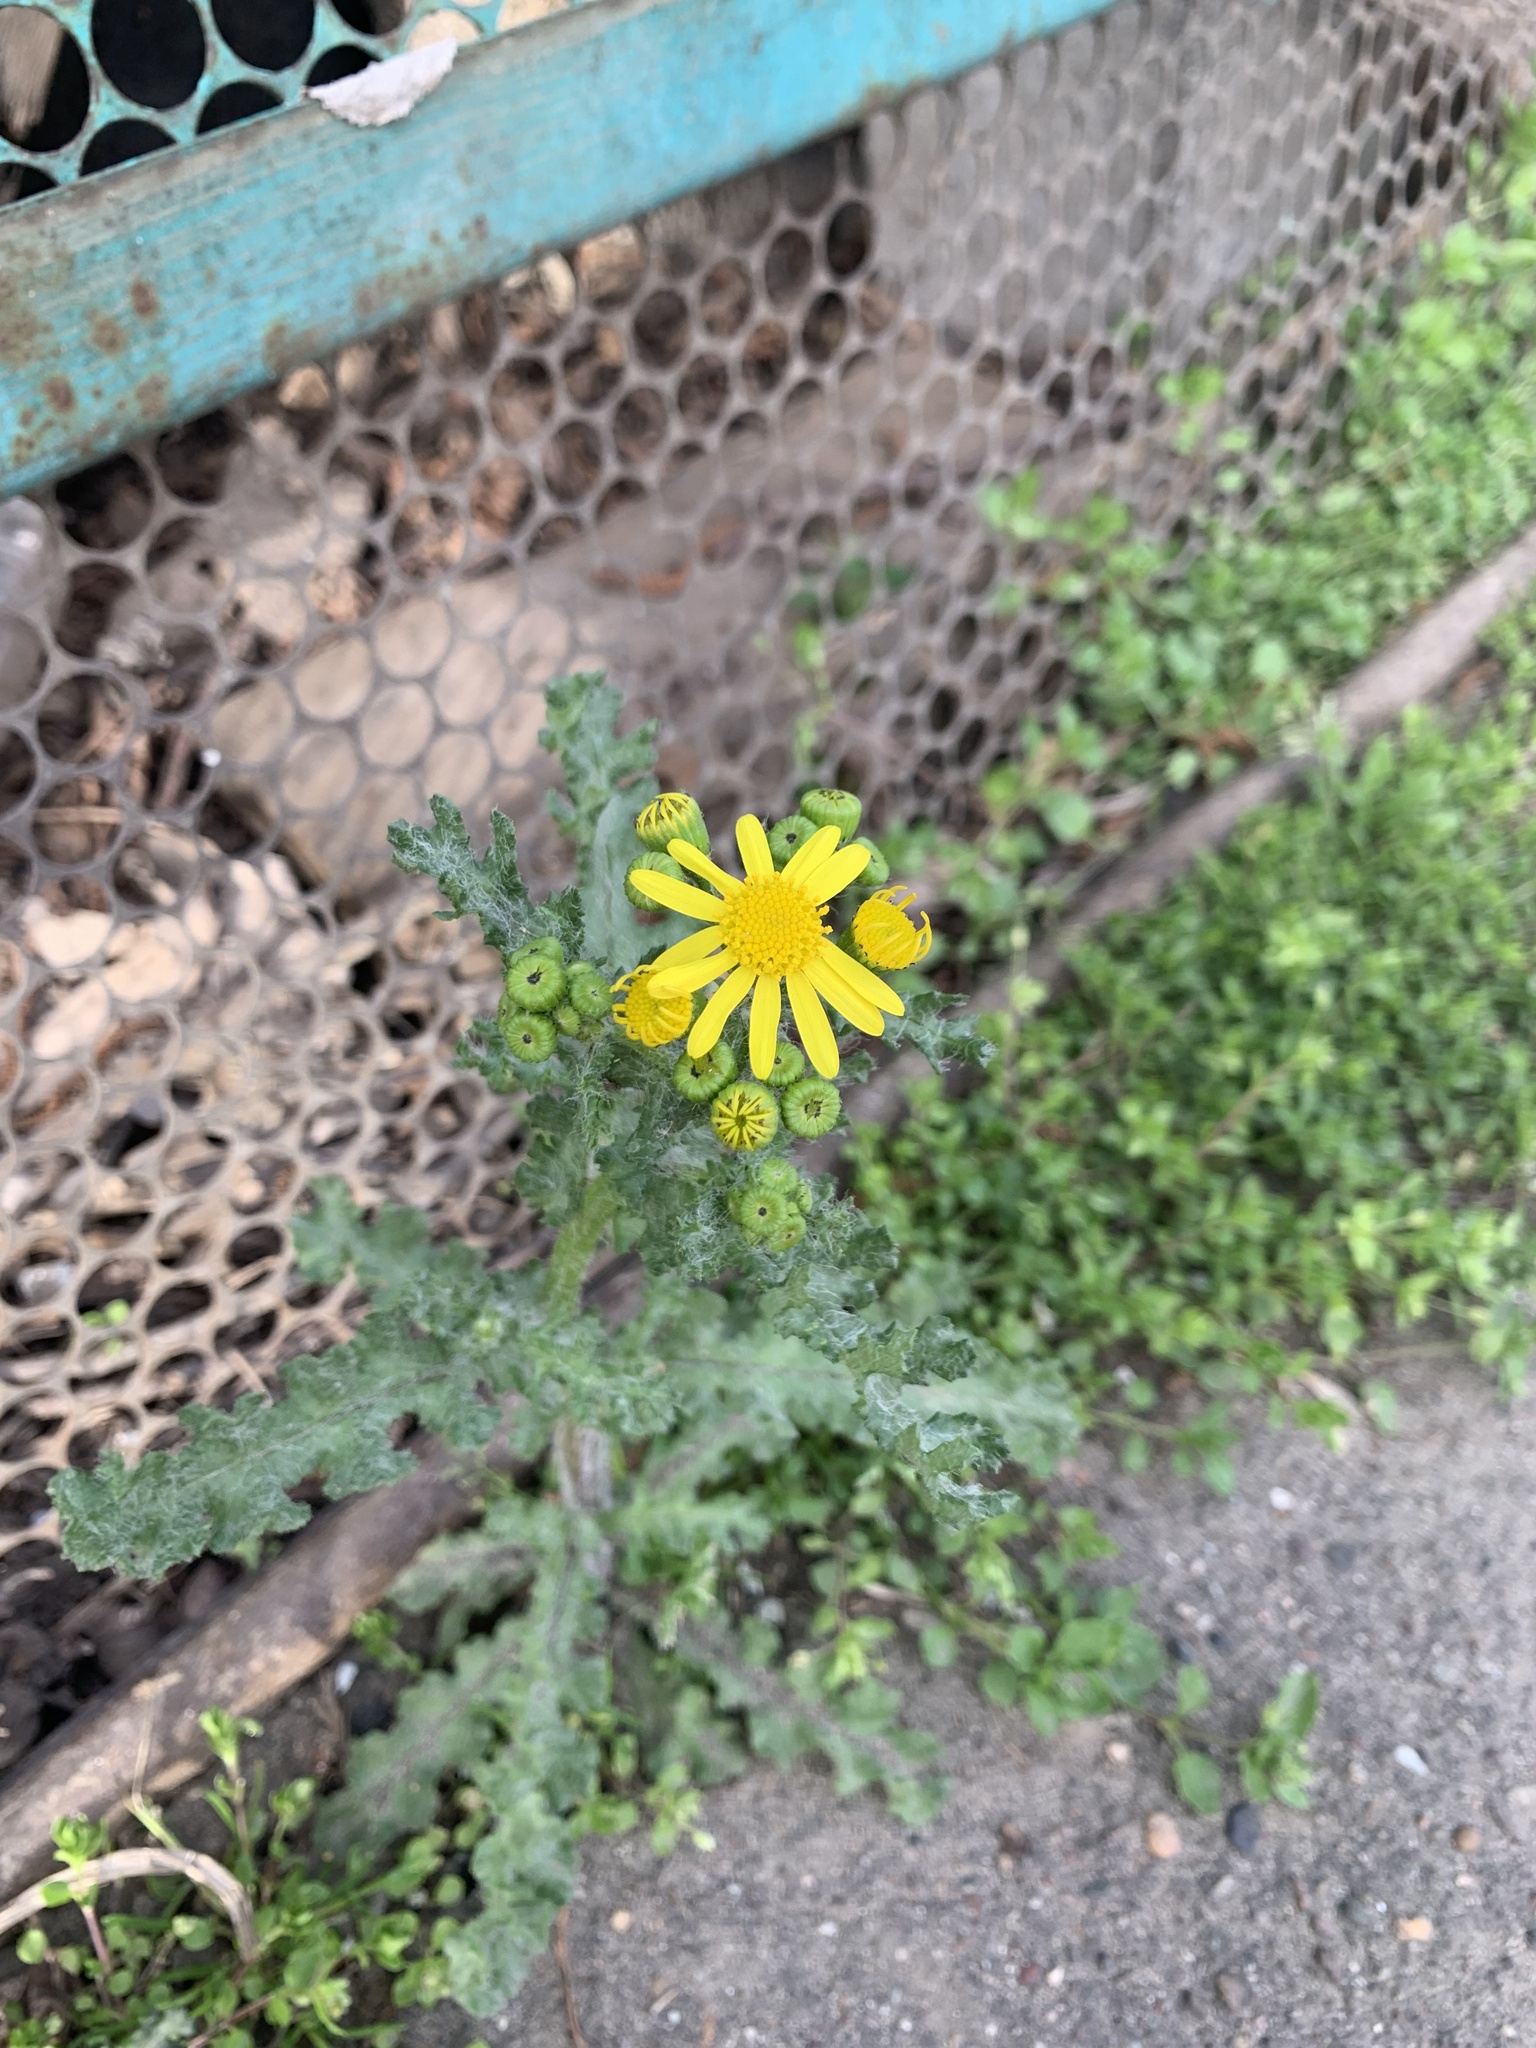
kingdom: Plantae
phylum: Tracheophyta
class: Magnoliopsida
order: Asterales
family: Asteraceae
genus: Senecio
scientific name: Senecio vernalis
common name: Eastern groundsel
